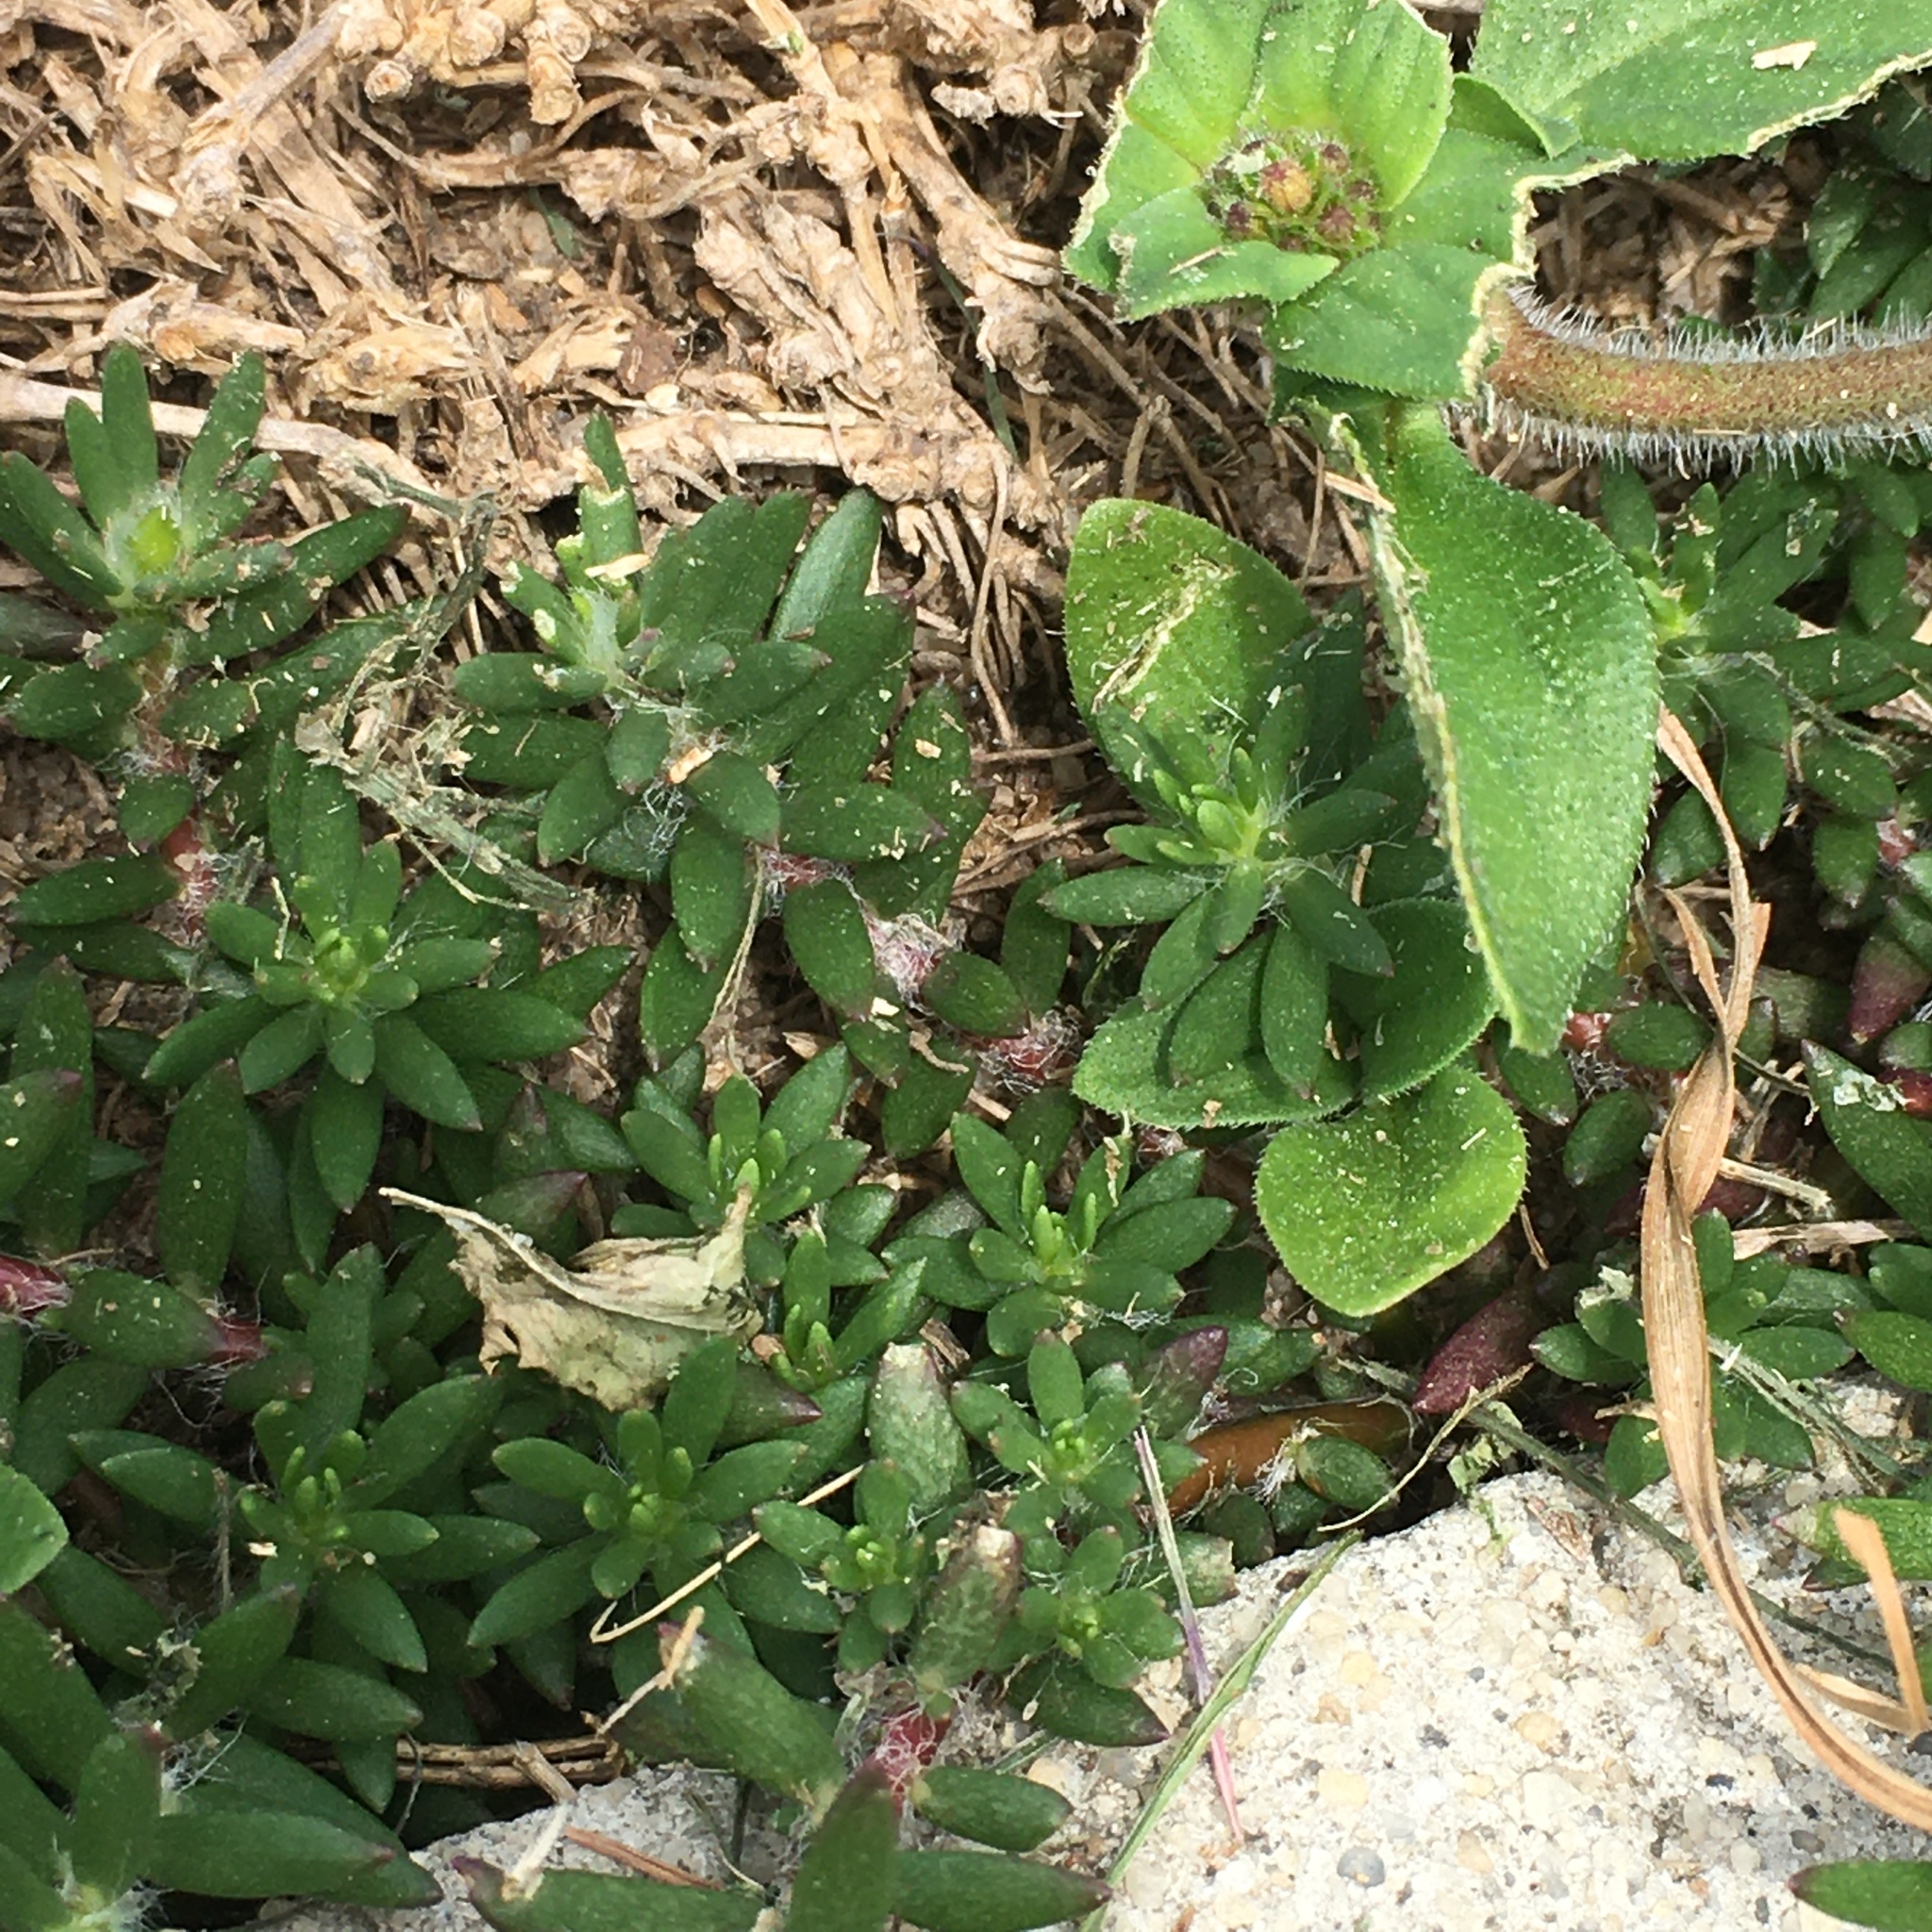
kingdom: Plantae
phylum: Tracheophyta
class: Magnoliopsida
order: Caryophyllales
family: Portulacaceae
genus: Portulaca
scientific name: Portulaca pilosa
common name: Kiss me quick
